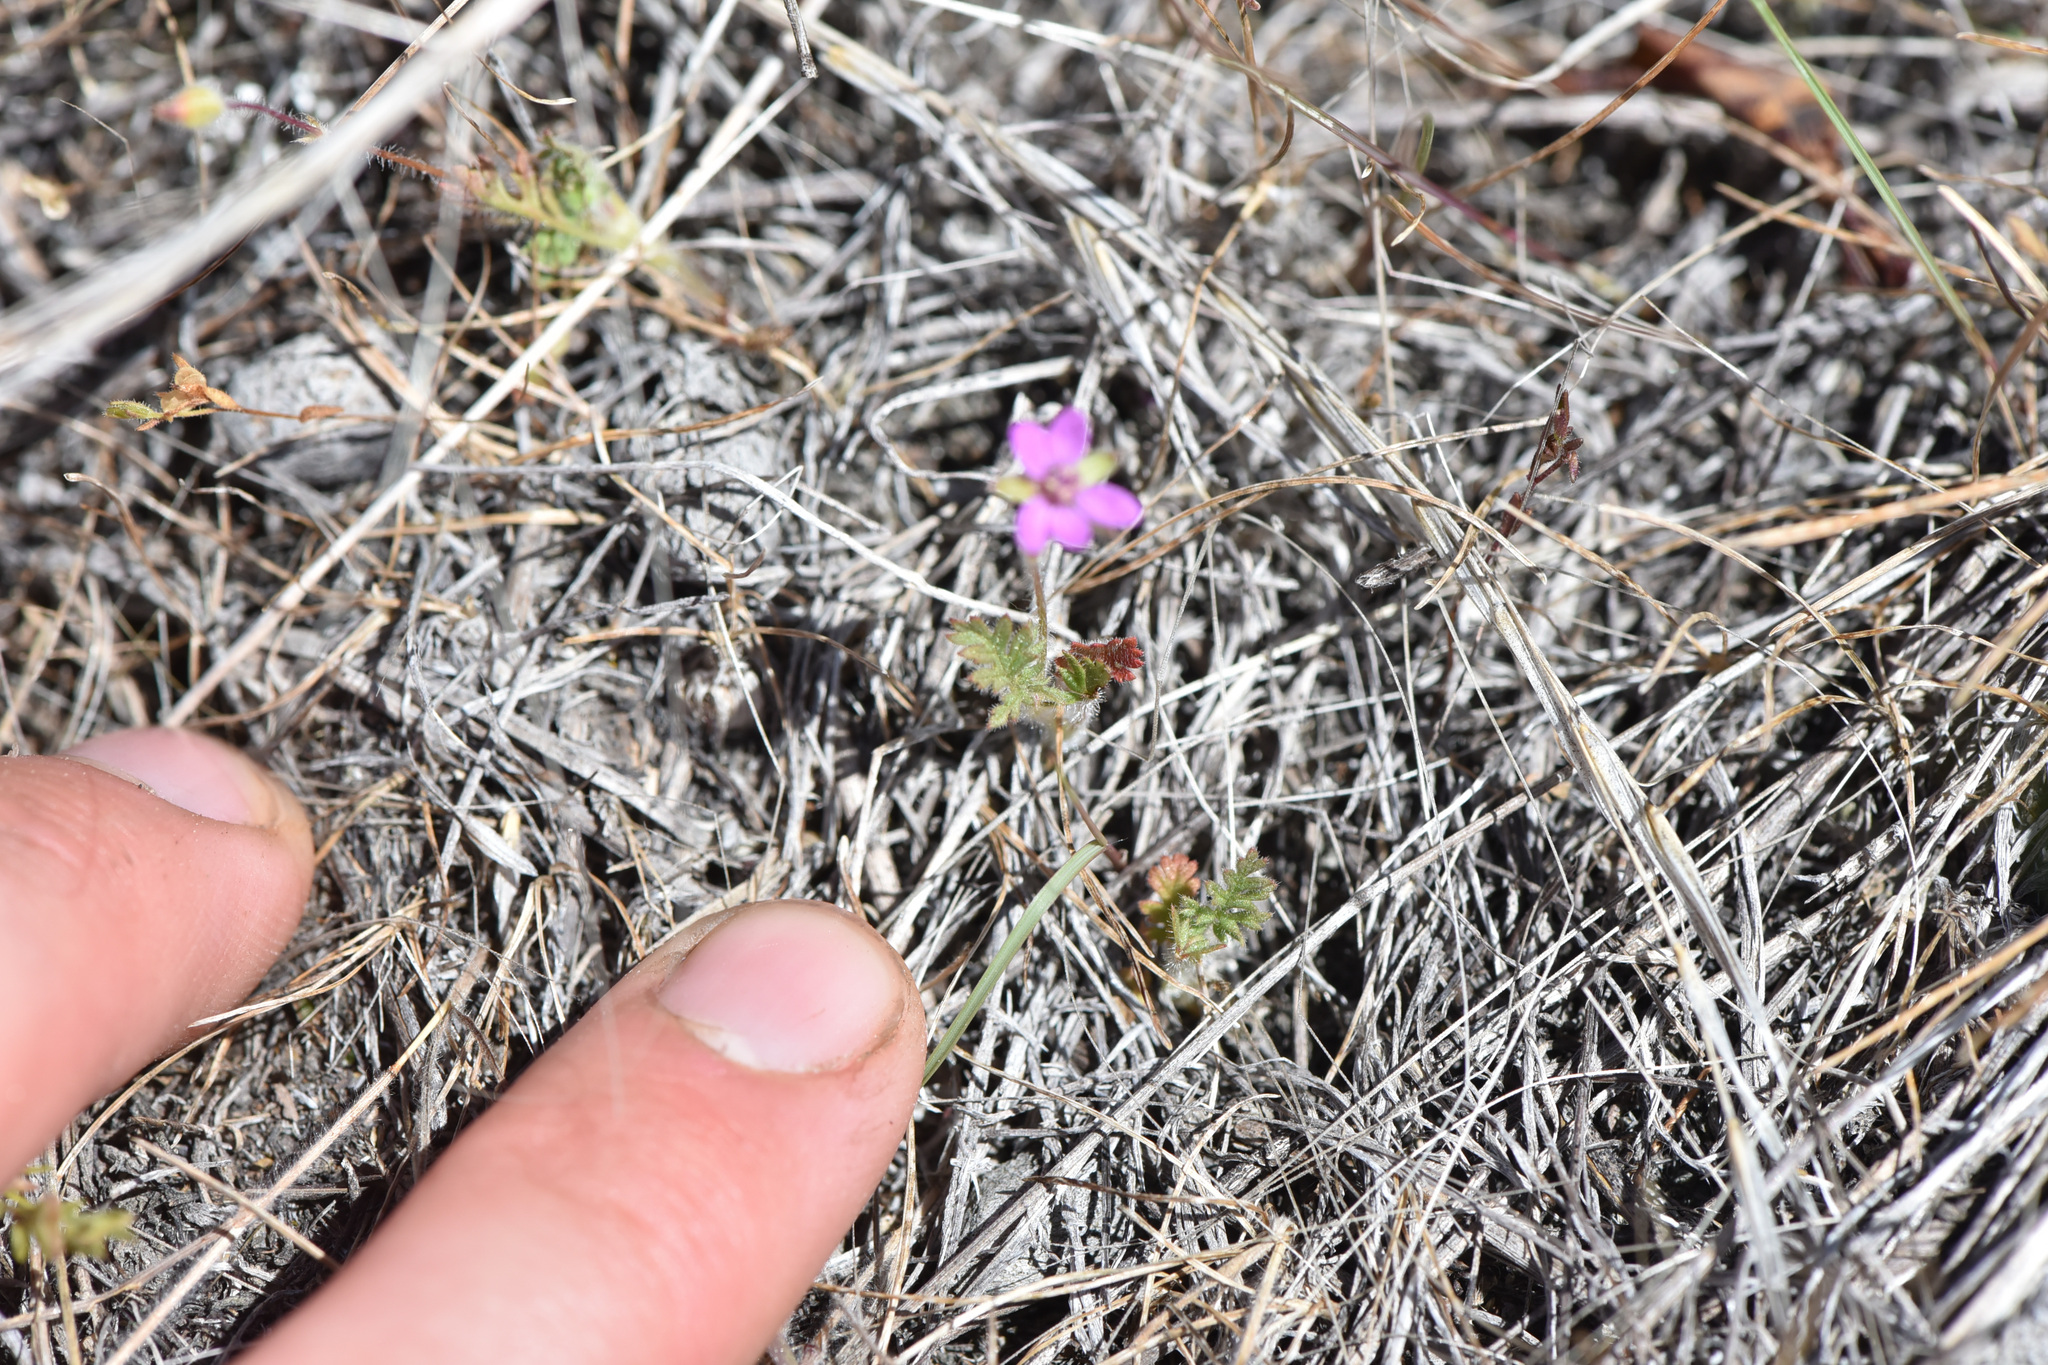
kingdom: Plantae
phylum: Tracheophyta
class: Magnoliopsida
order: Geraniales
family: Geraniaceae
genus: Erodium
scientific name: Erodium cicutarium
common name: Common stork's-bill
